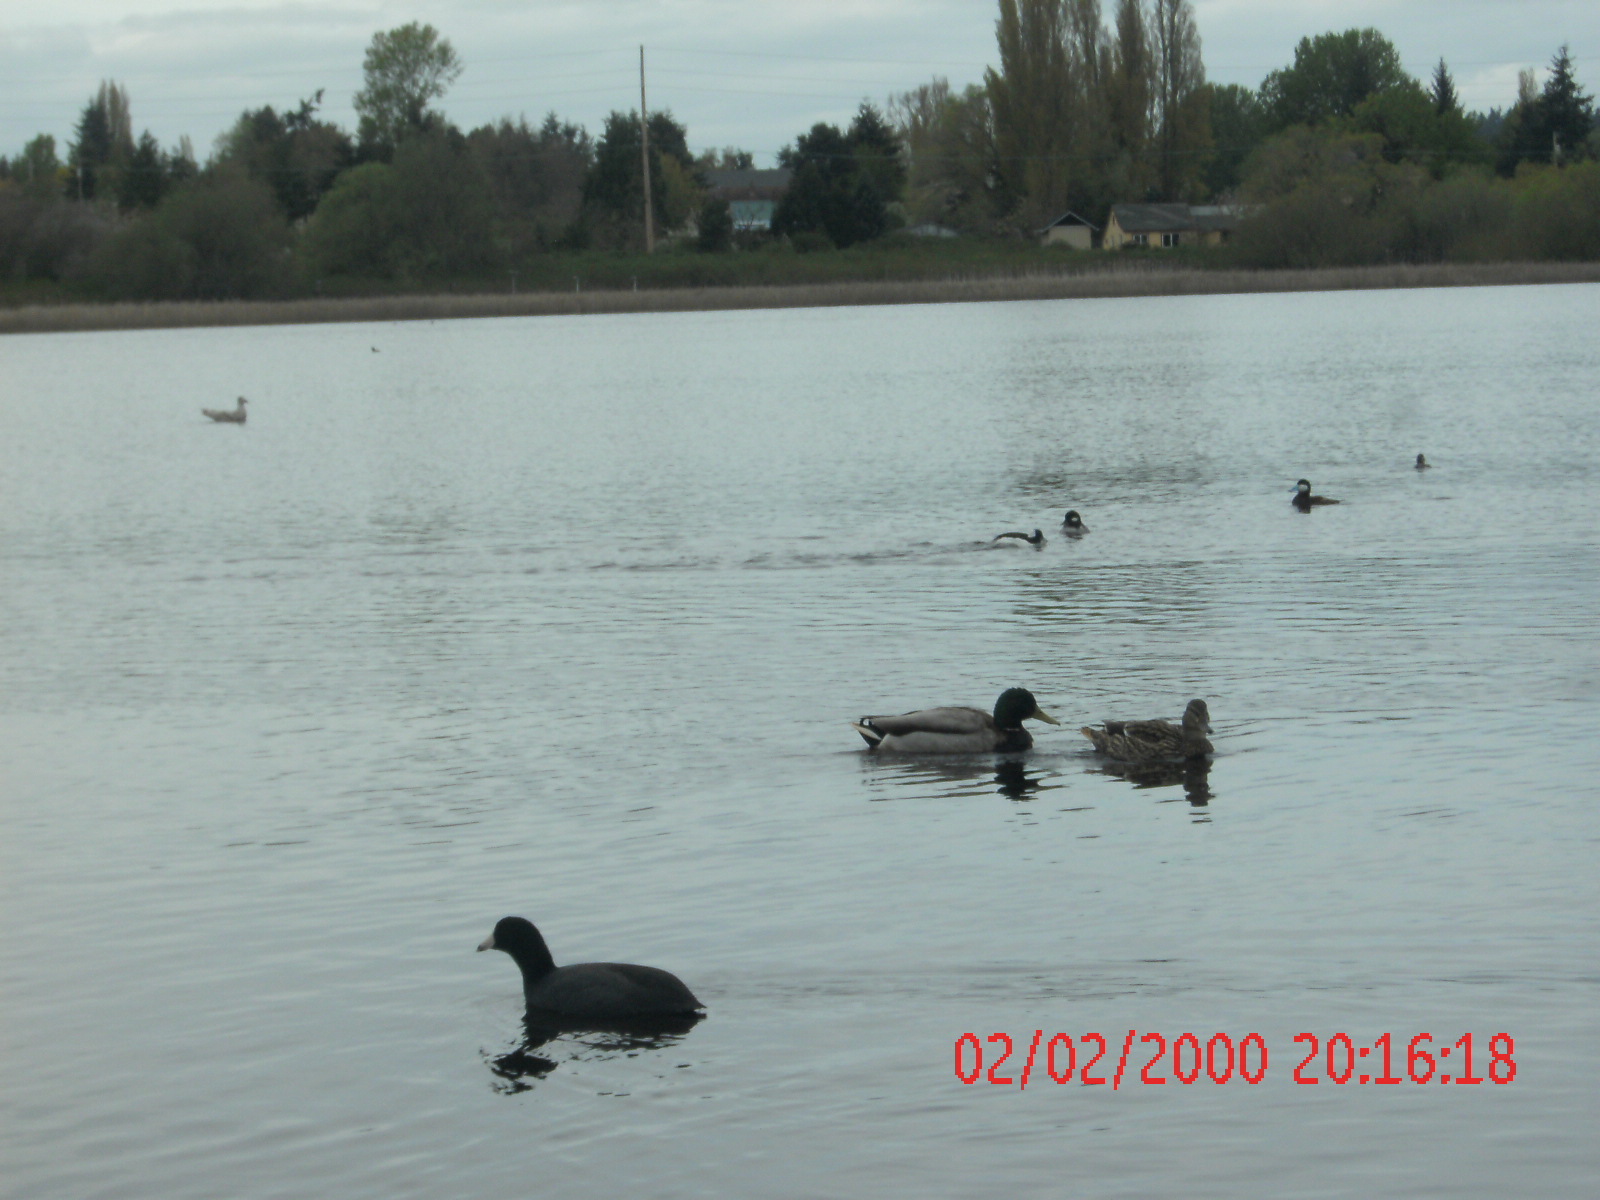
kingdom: Animalia
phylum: Chordata
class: Aves
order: Anseriformes
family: Anatidae
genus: Oxyura
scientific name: Oxyura jamaicensis
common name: Ruddy duck
